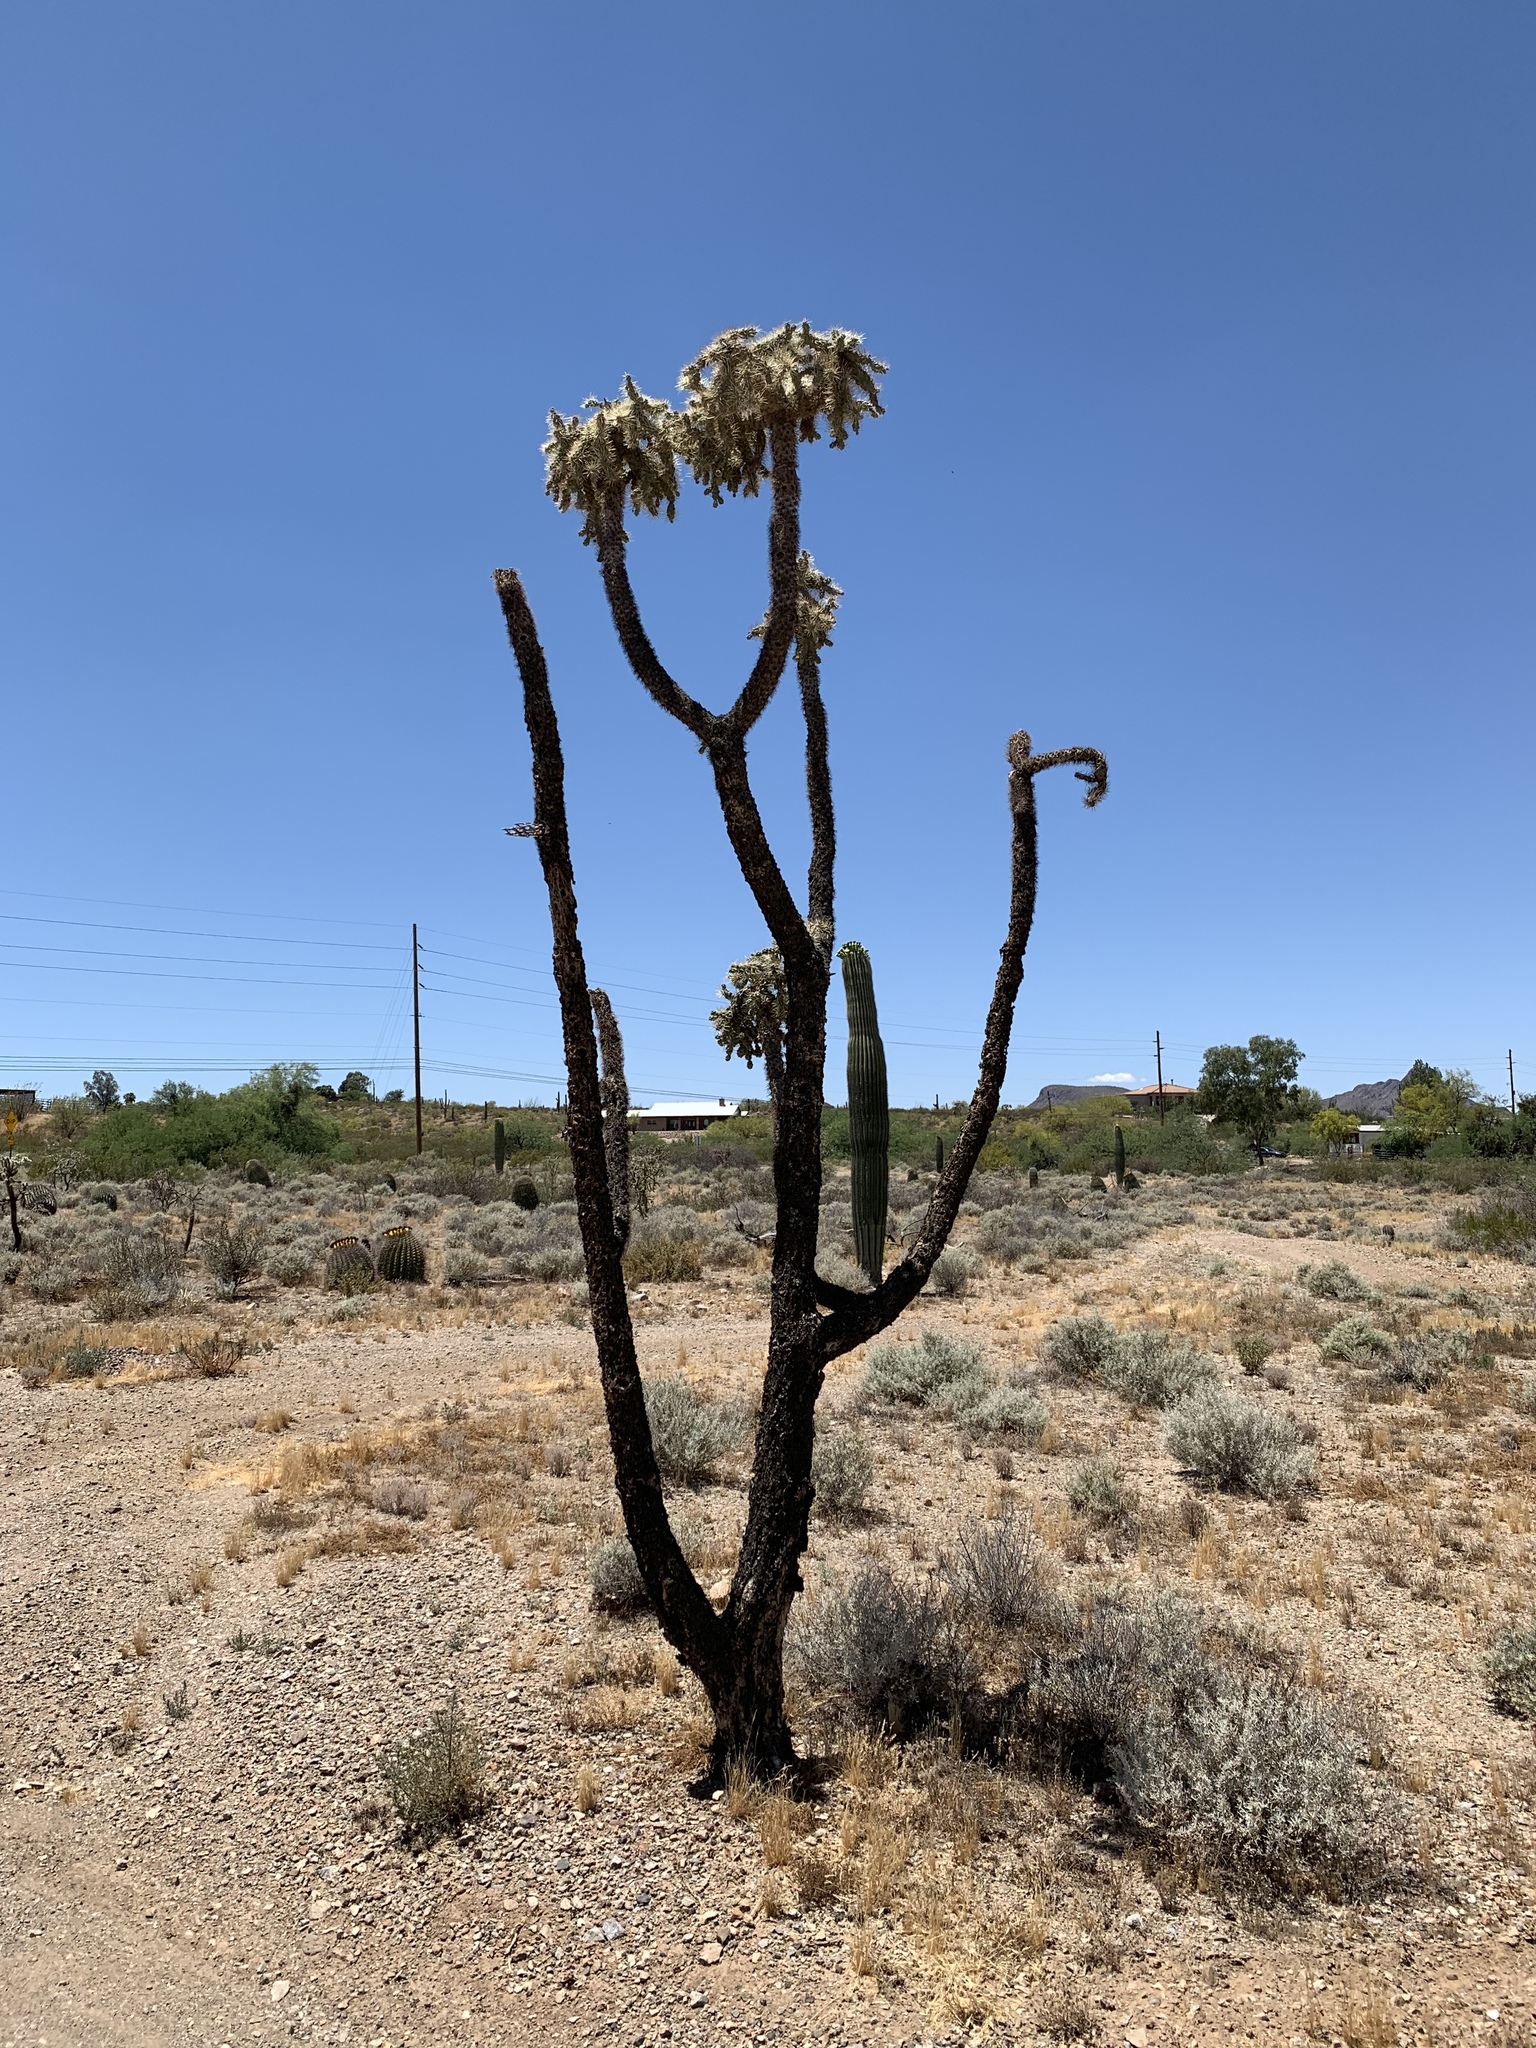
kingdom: Plantae
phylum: Tracheophyta
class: Magnoliopsida
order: Caryophyllales
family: Cactaceae
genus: Cylindropuntia
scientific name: Cylindropuntia fulgida
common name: Jumping cholla
